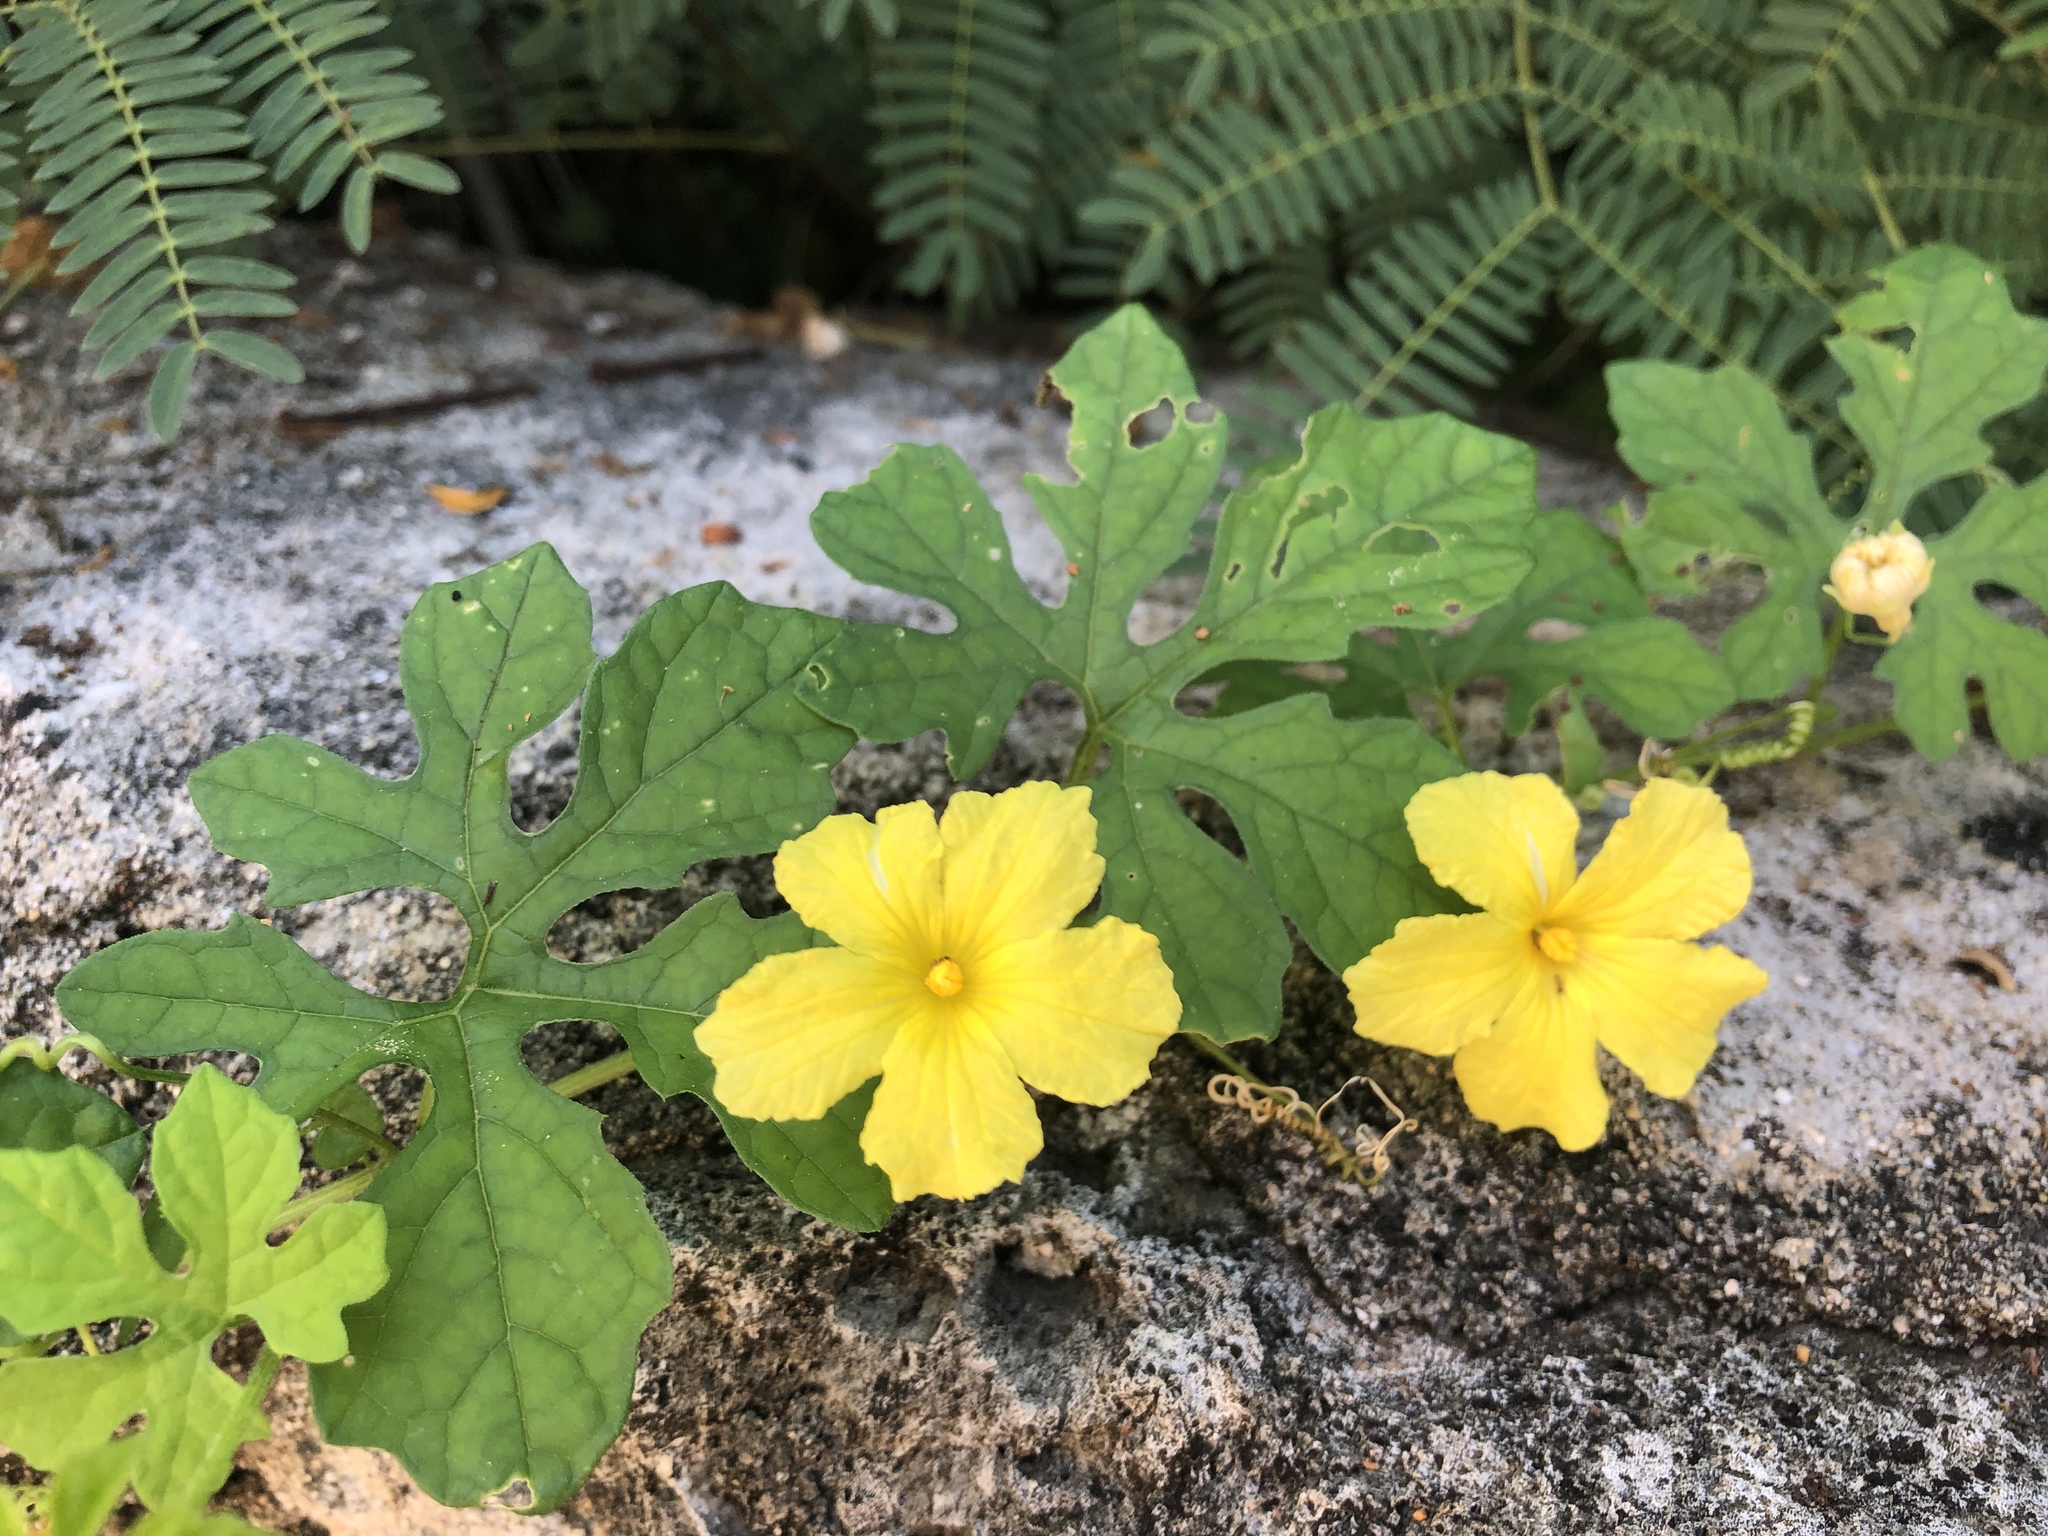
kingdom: Plantae
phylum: Tracheophyta
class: Magnoliopsida
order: Cucurbitales
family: Cucurbitaceae
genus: Momordica
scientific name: Momordica charantia
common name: Balsampear
